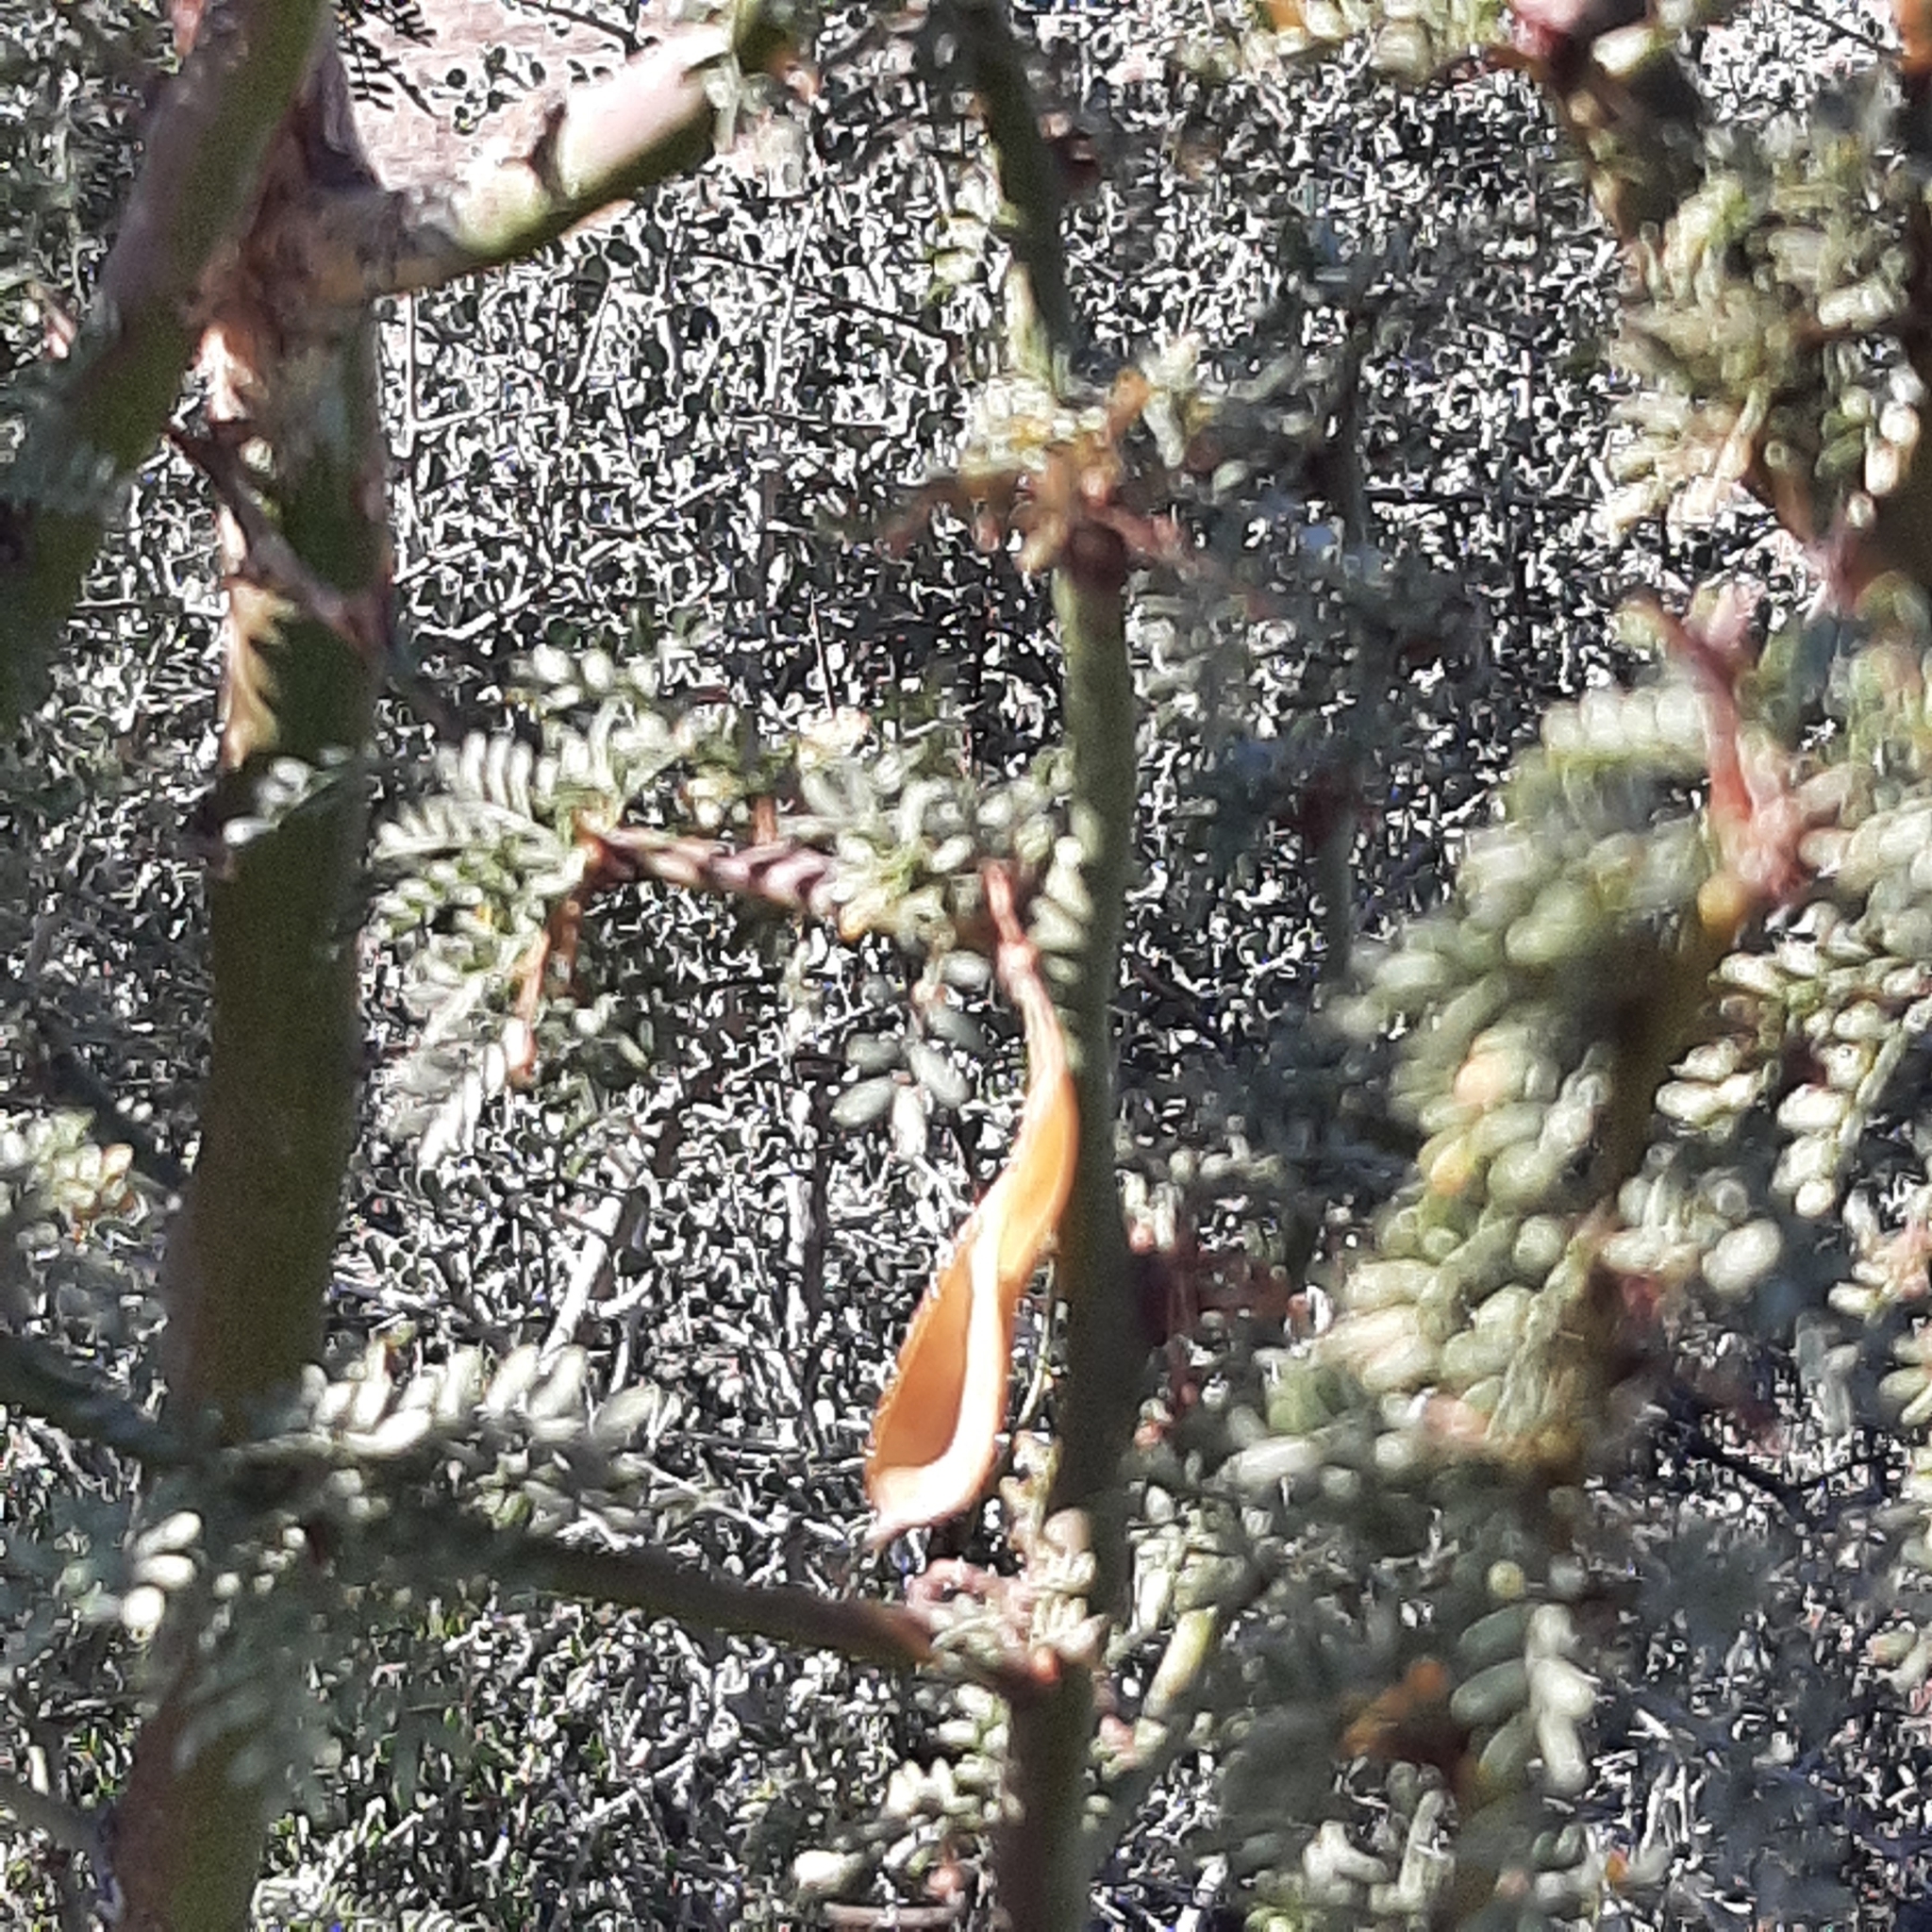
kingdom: Plantae
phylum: Tracheophyta
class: Magnoliopsida
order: Fabales
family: Fabaceae
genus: Parkinsonia
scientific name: Parkinsonia praecox
